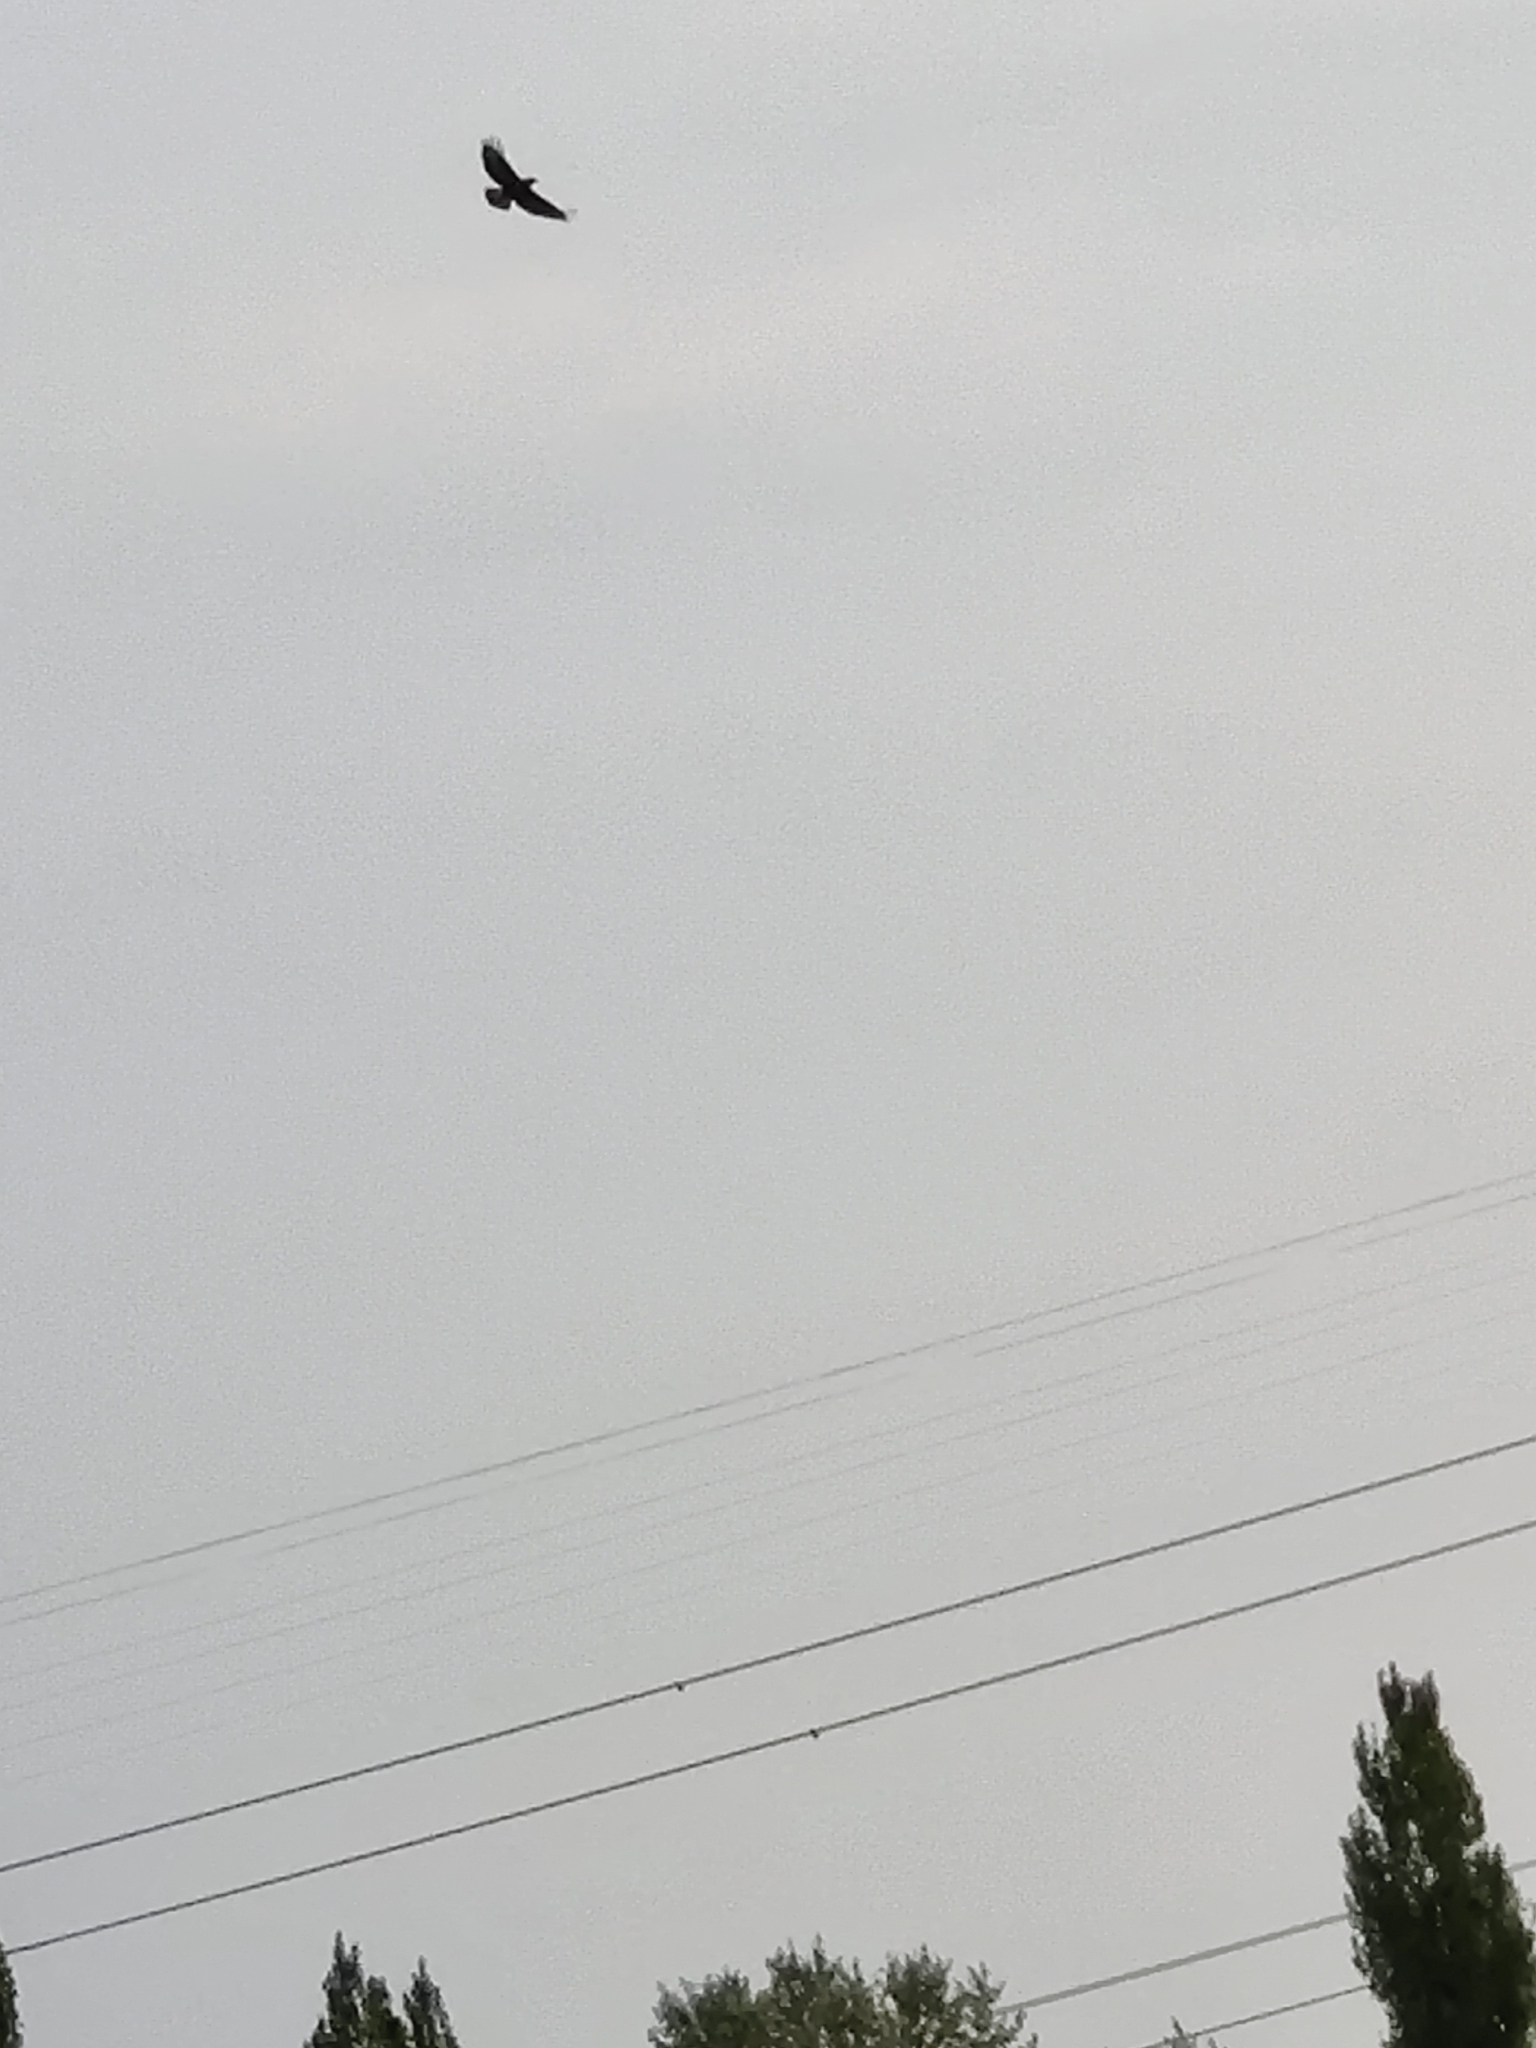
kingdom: Animalia
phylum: Chordata
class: Aves
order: Accipitriformes
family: Accipitridae
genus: Buteo
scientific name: Buteo buteo
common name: Common buzzard
